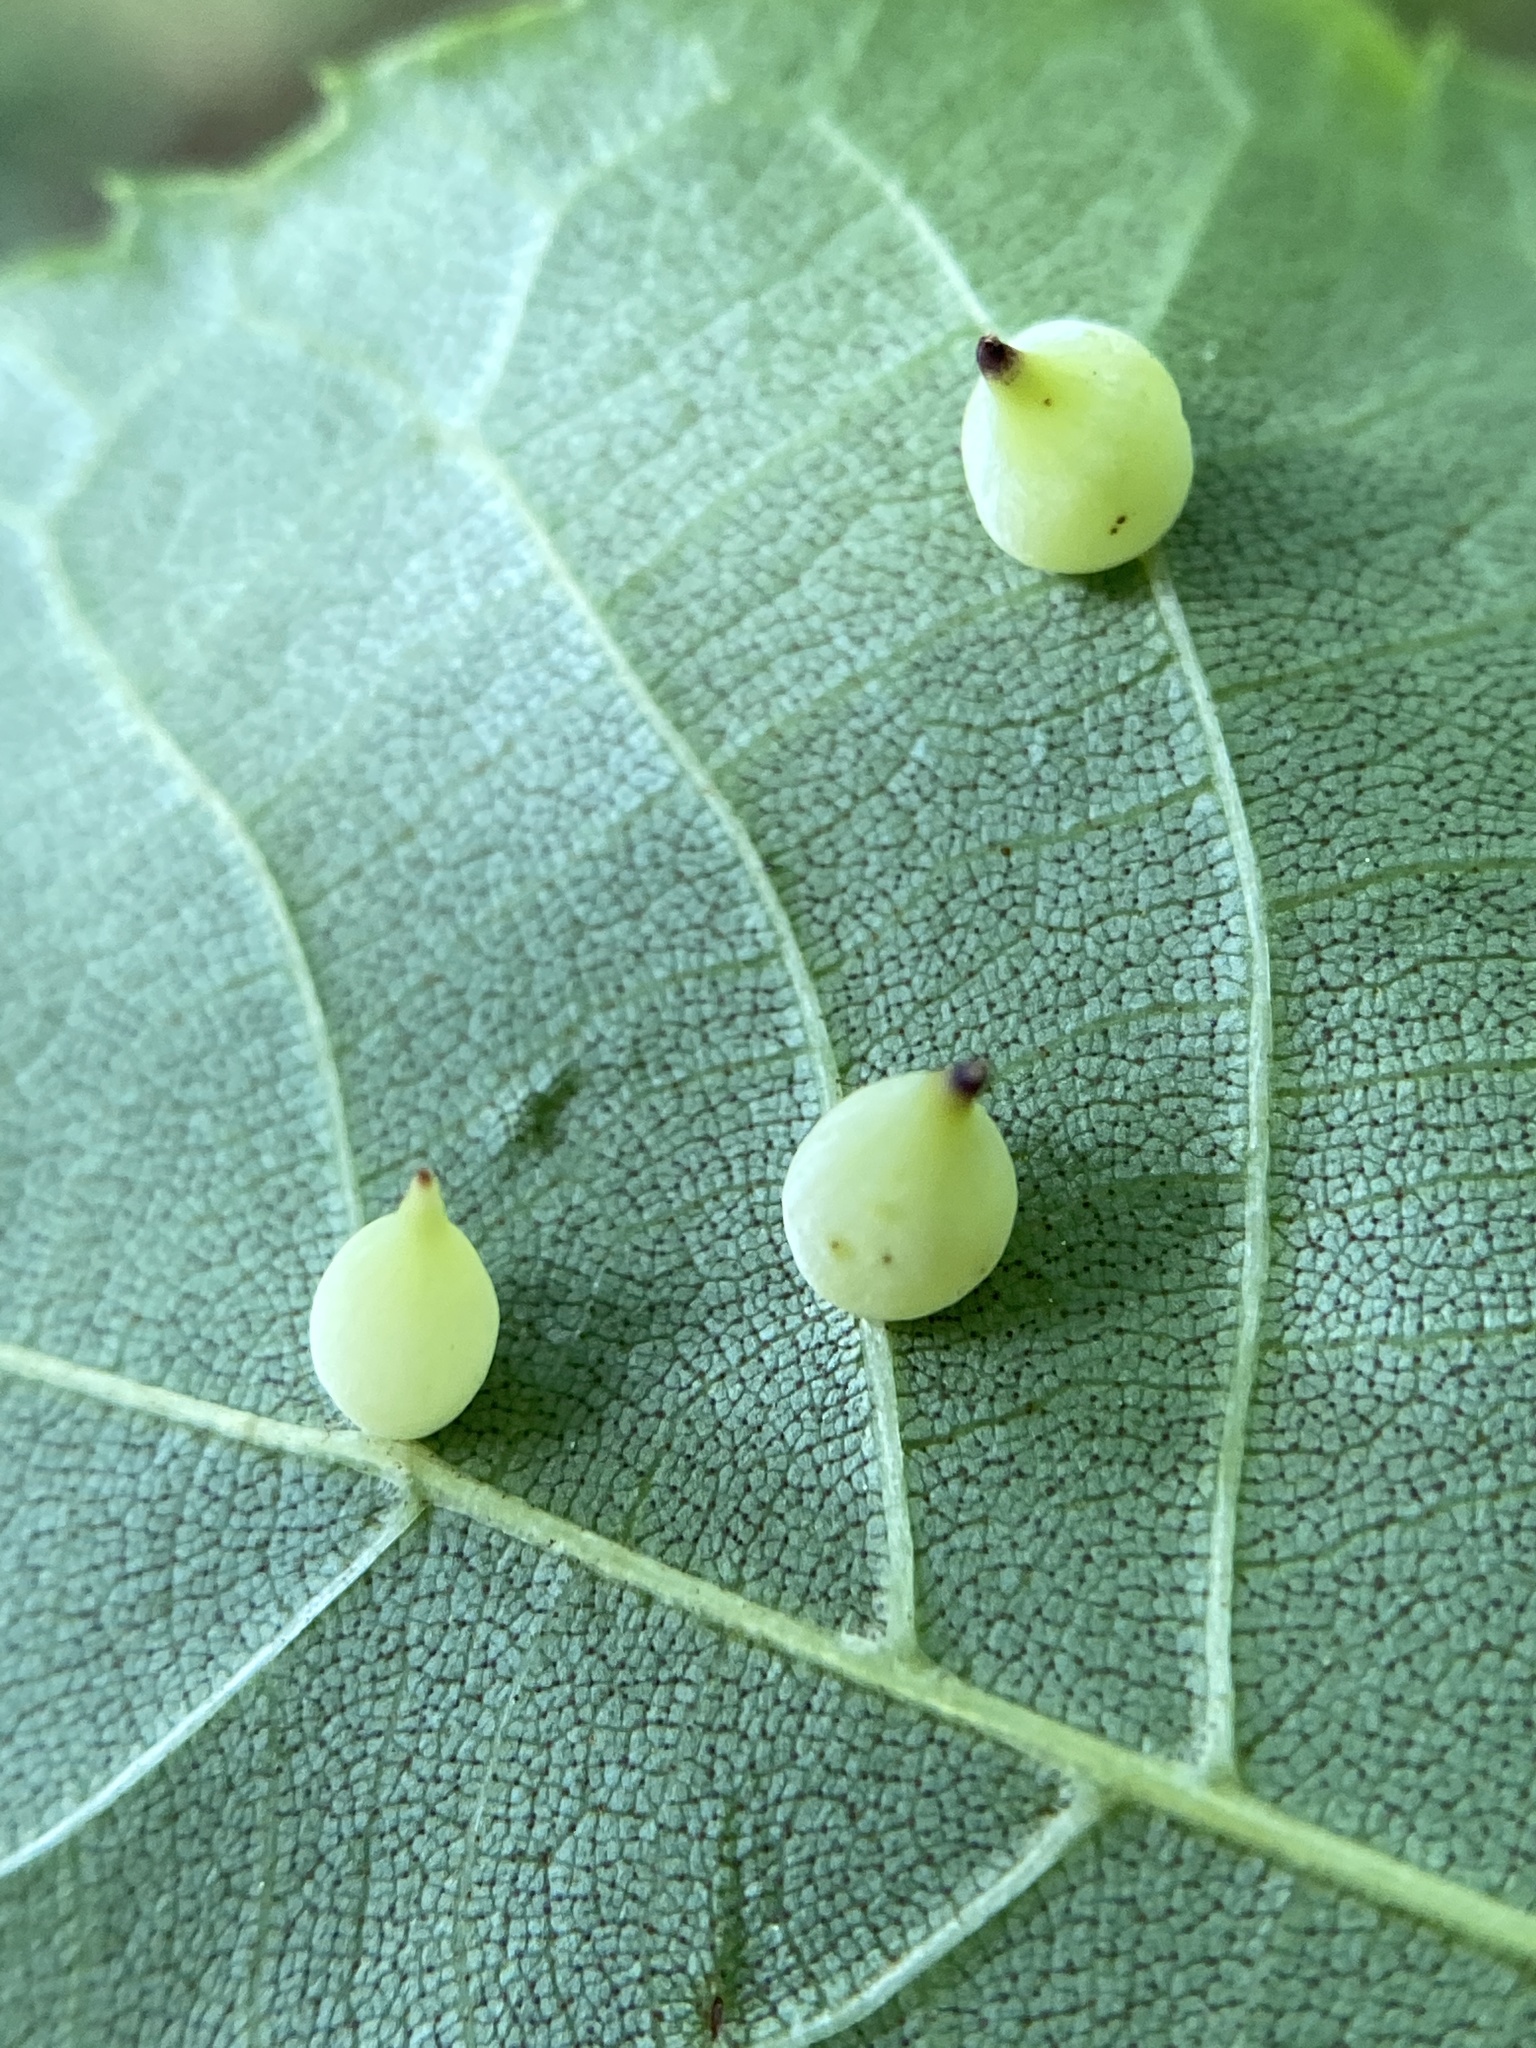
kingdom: Animalia
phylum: Arthropoda
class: Insecta
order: Diptera
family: Cecidomyiidae
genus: Caryomyia
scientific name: Caryomyia caryaecola
